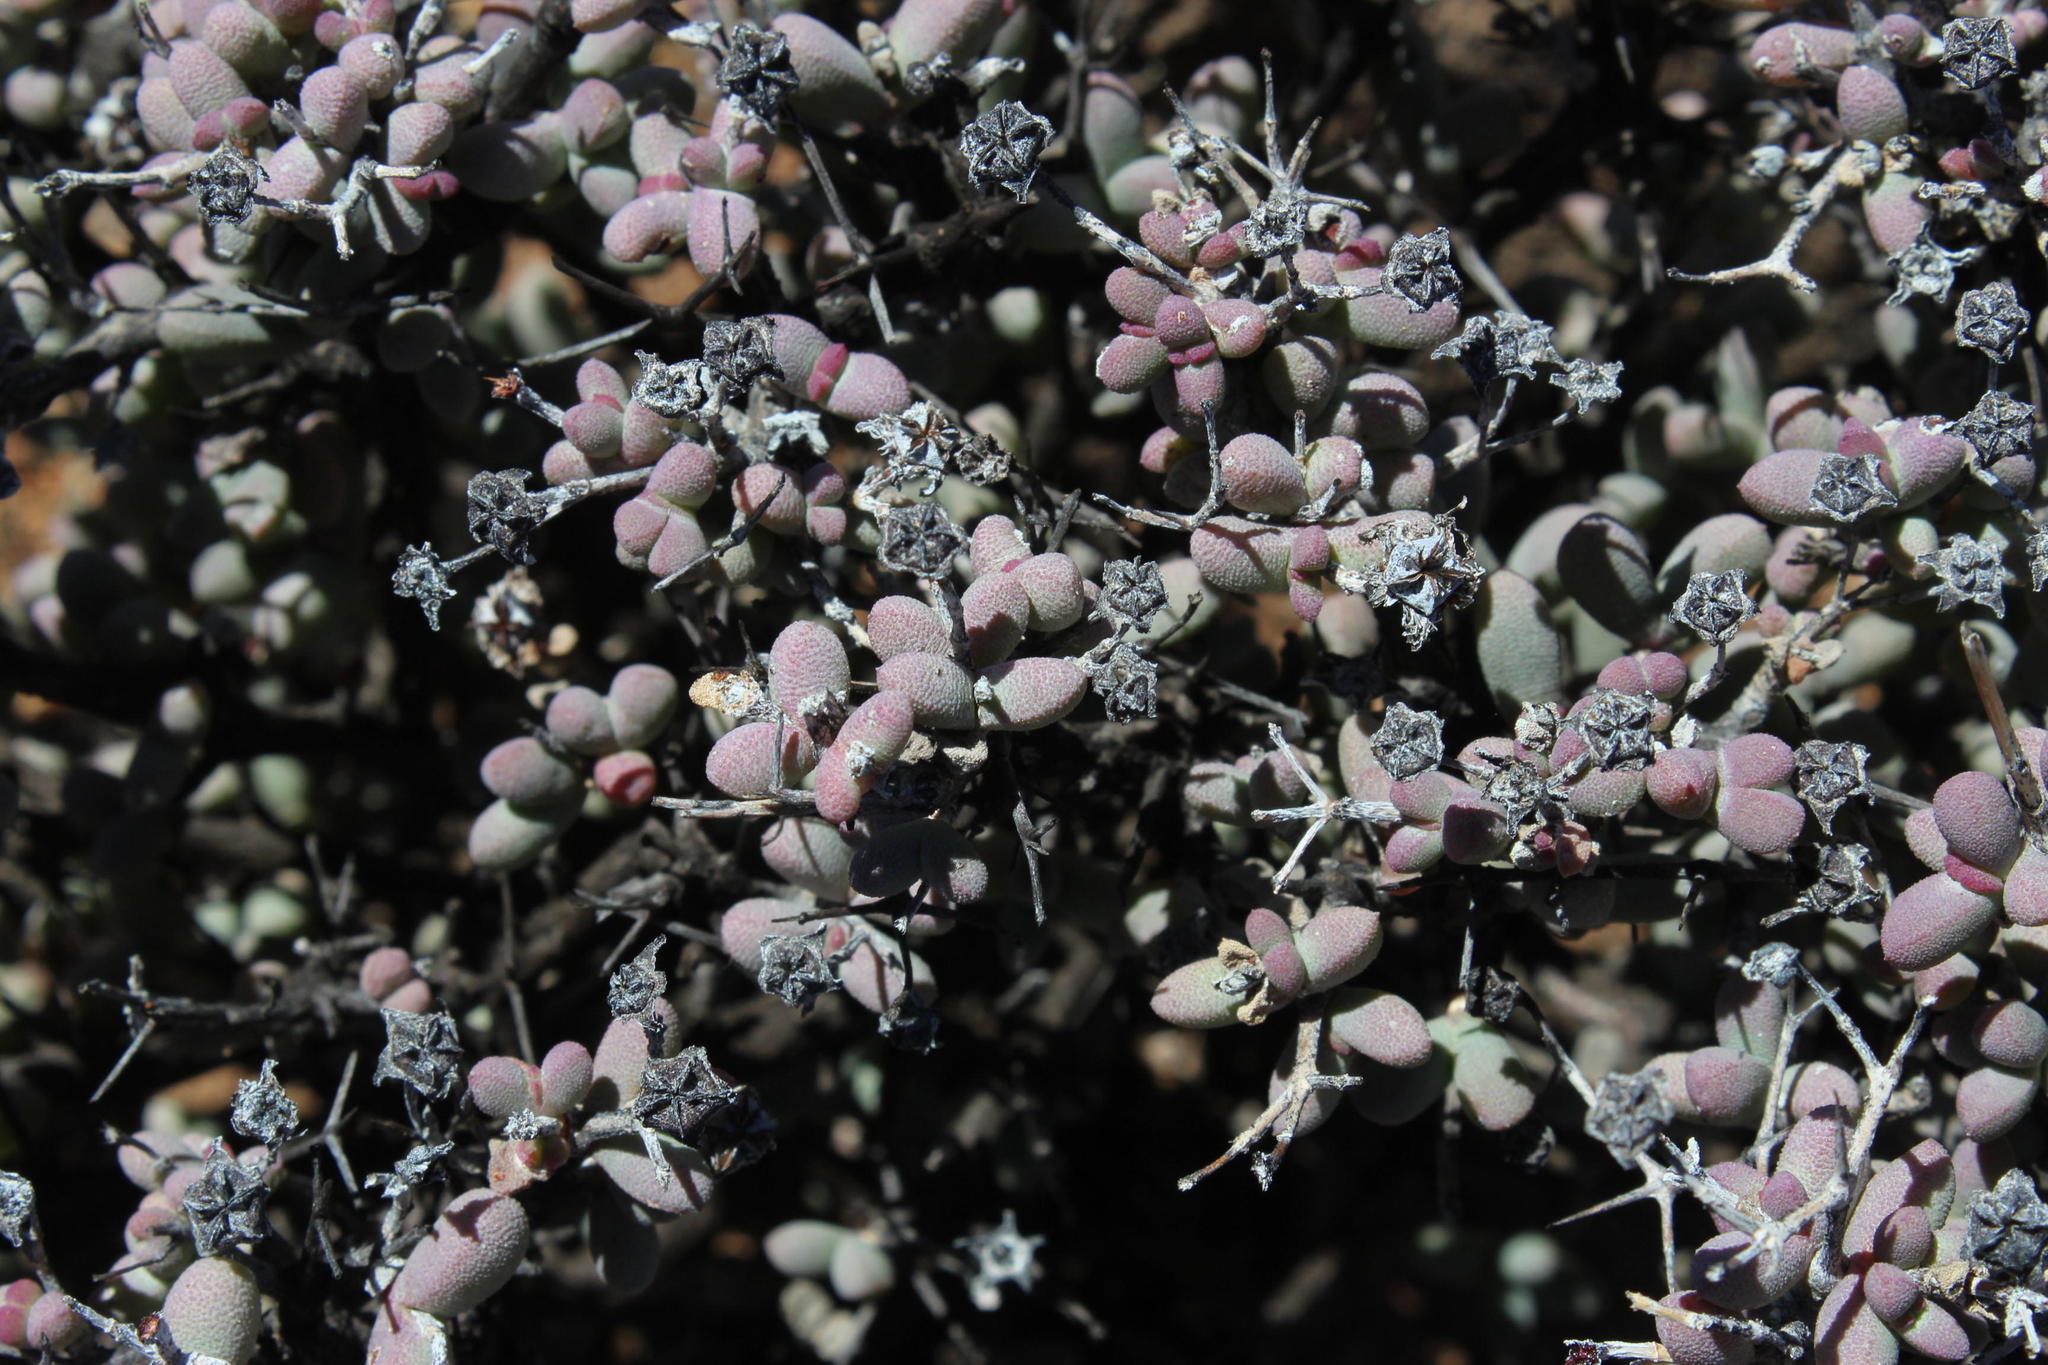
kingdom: Plantae
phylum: Tracheophyta
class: Magnoliopsida
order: Caryophyllales
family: Aizoaceae
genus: Eberlanzia
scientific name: Eberlanzia clausa
